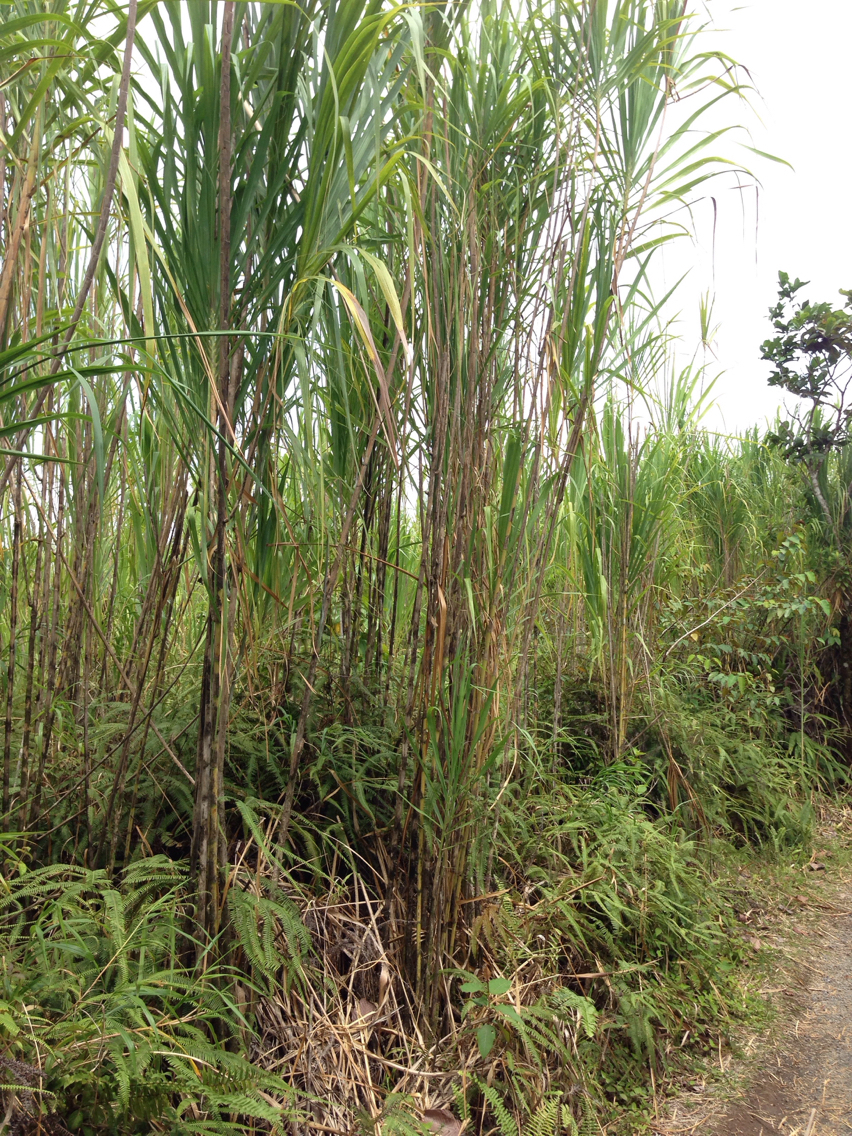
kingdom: Plantae
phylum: Tracheophyta
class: Liliopsida
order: Poales
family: Poaceae
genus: Gynerium
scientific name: Gynerium sagittatum
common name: Wild cane
